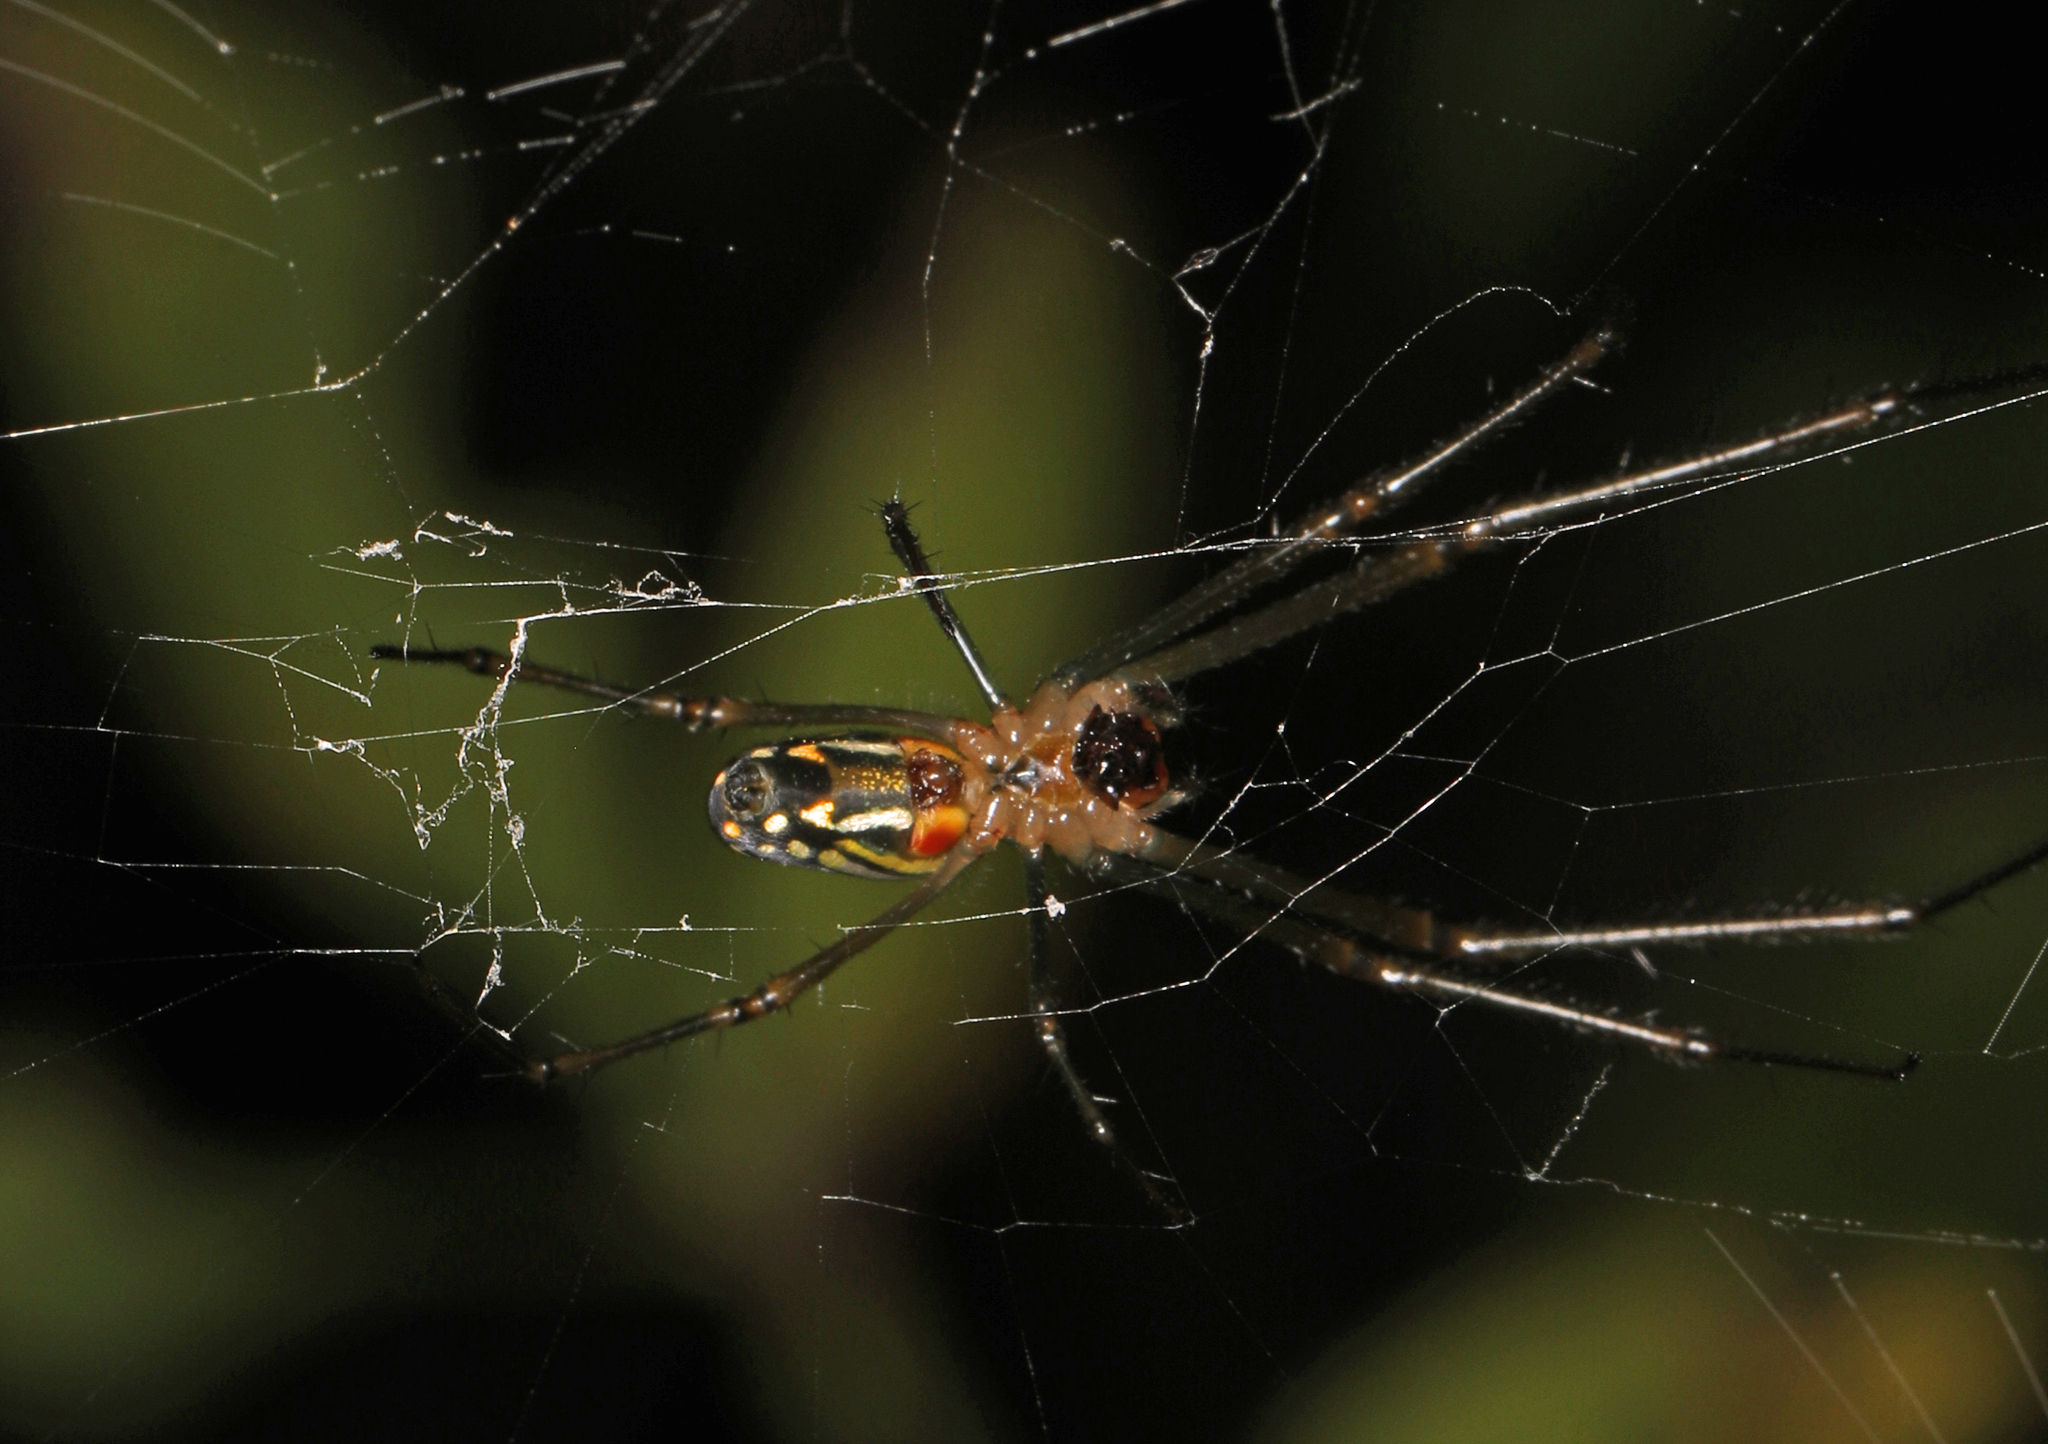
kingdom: Animalia
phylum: Arthropoda
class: Arachnida
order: Araneae
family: Tetragnathidae
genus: Leucauge
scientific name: Leucauge argyra
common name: Longjawed orb weavers
